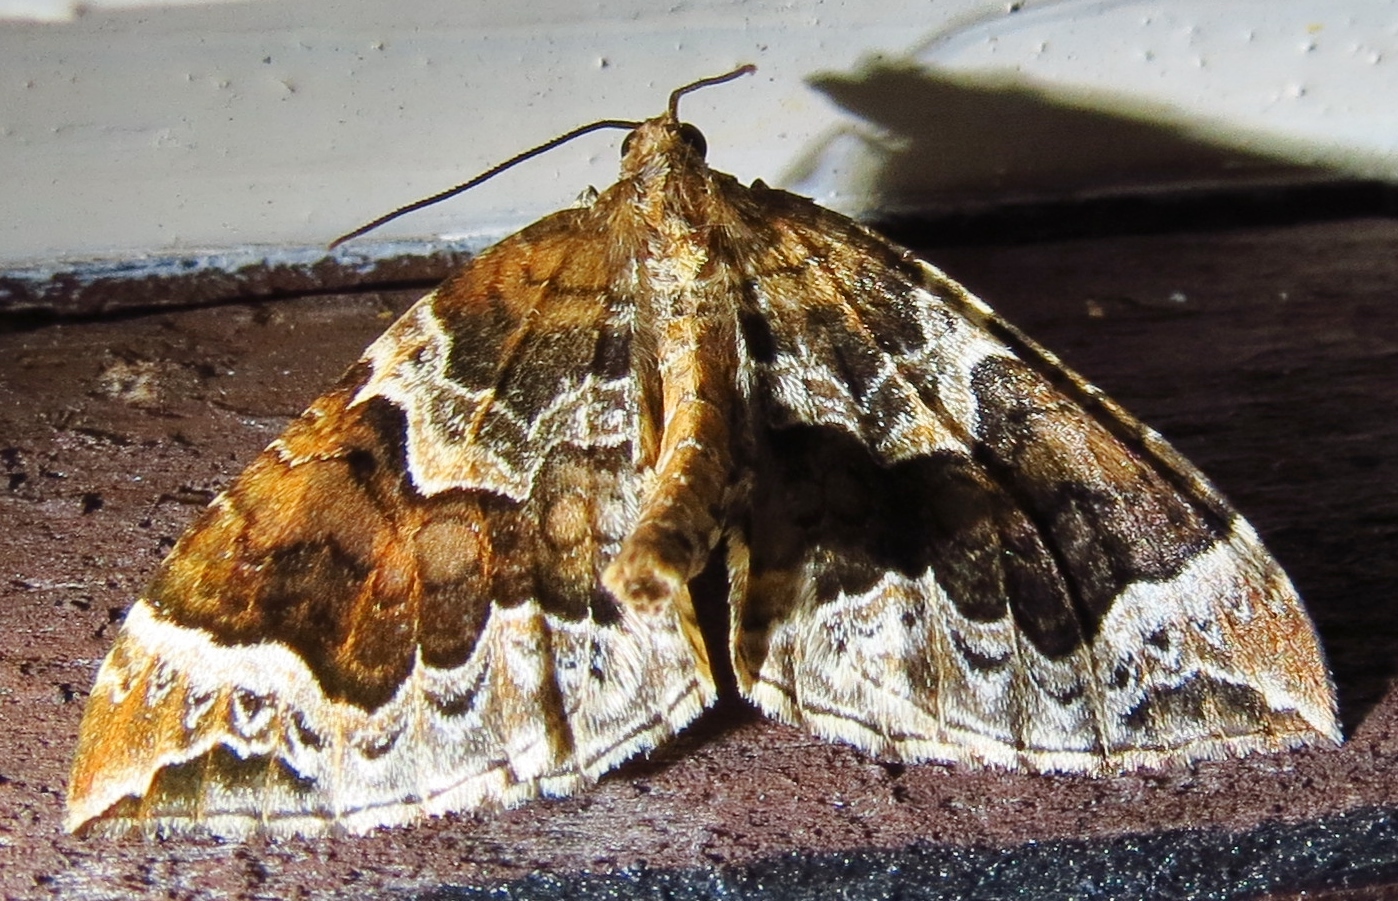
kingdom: Animalia
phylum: Arthropoda
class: Insecta
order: Lepidoptera
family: Geometridae
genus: Eulithis
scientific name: Eulithis prunata
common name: Phoenix
